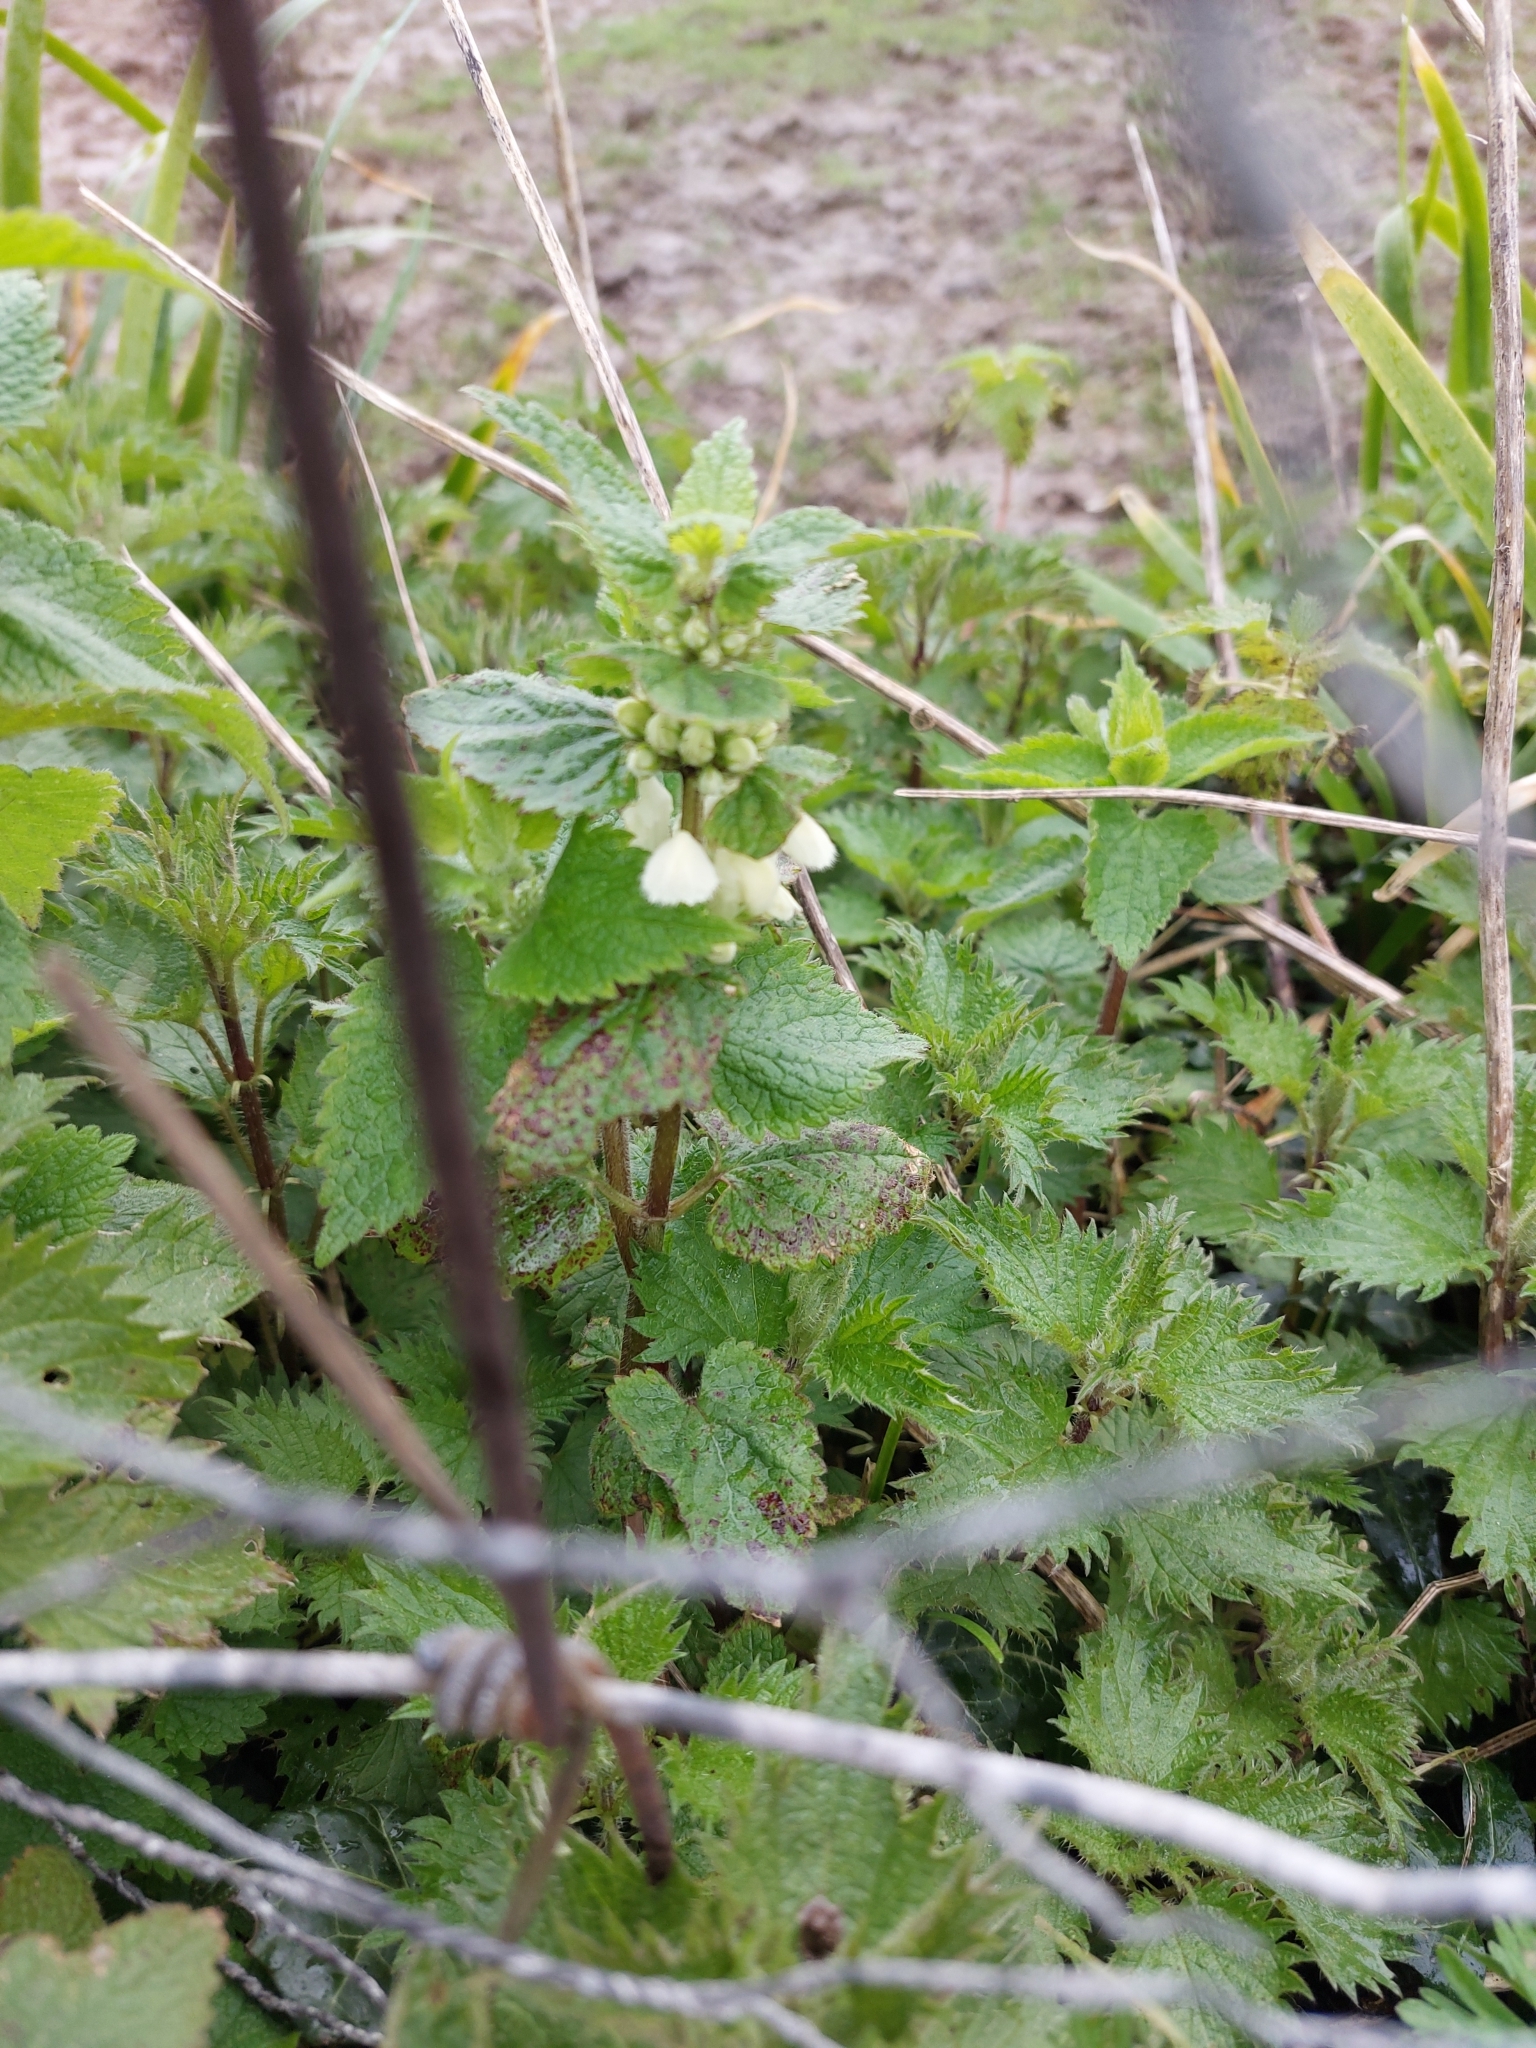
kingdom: Plantae
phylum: Tracheophyta
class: Magnoliopsida
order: Lamiales
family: Lamiaceae
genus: Lamium
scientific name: Lamium album
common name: White dead-nettle
